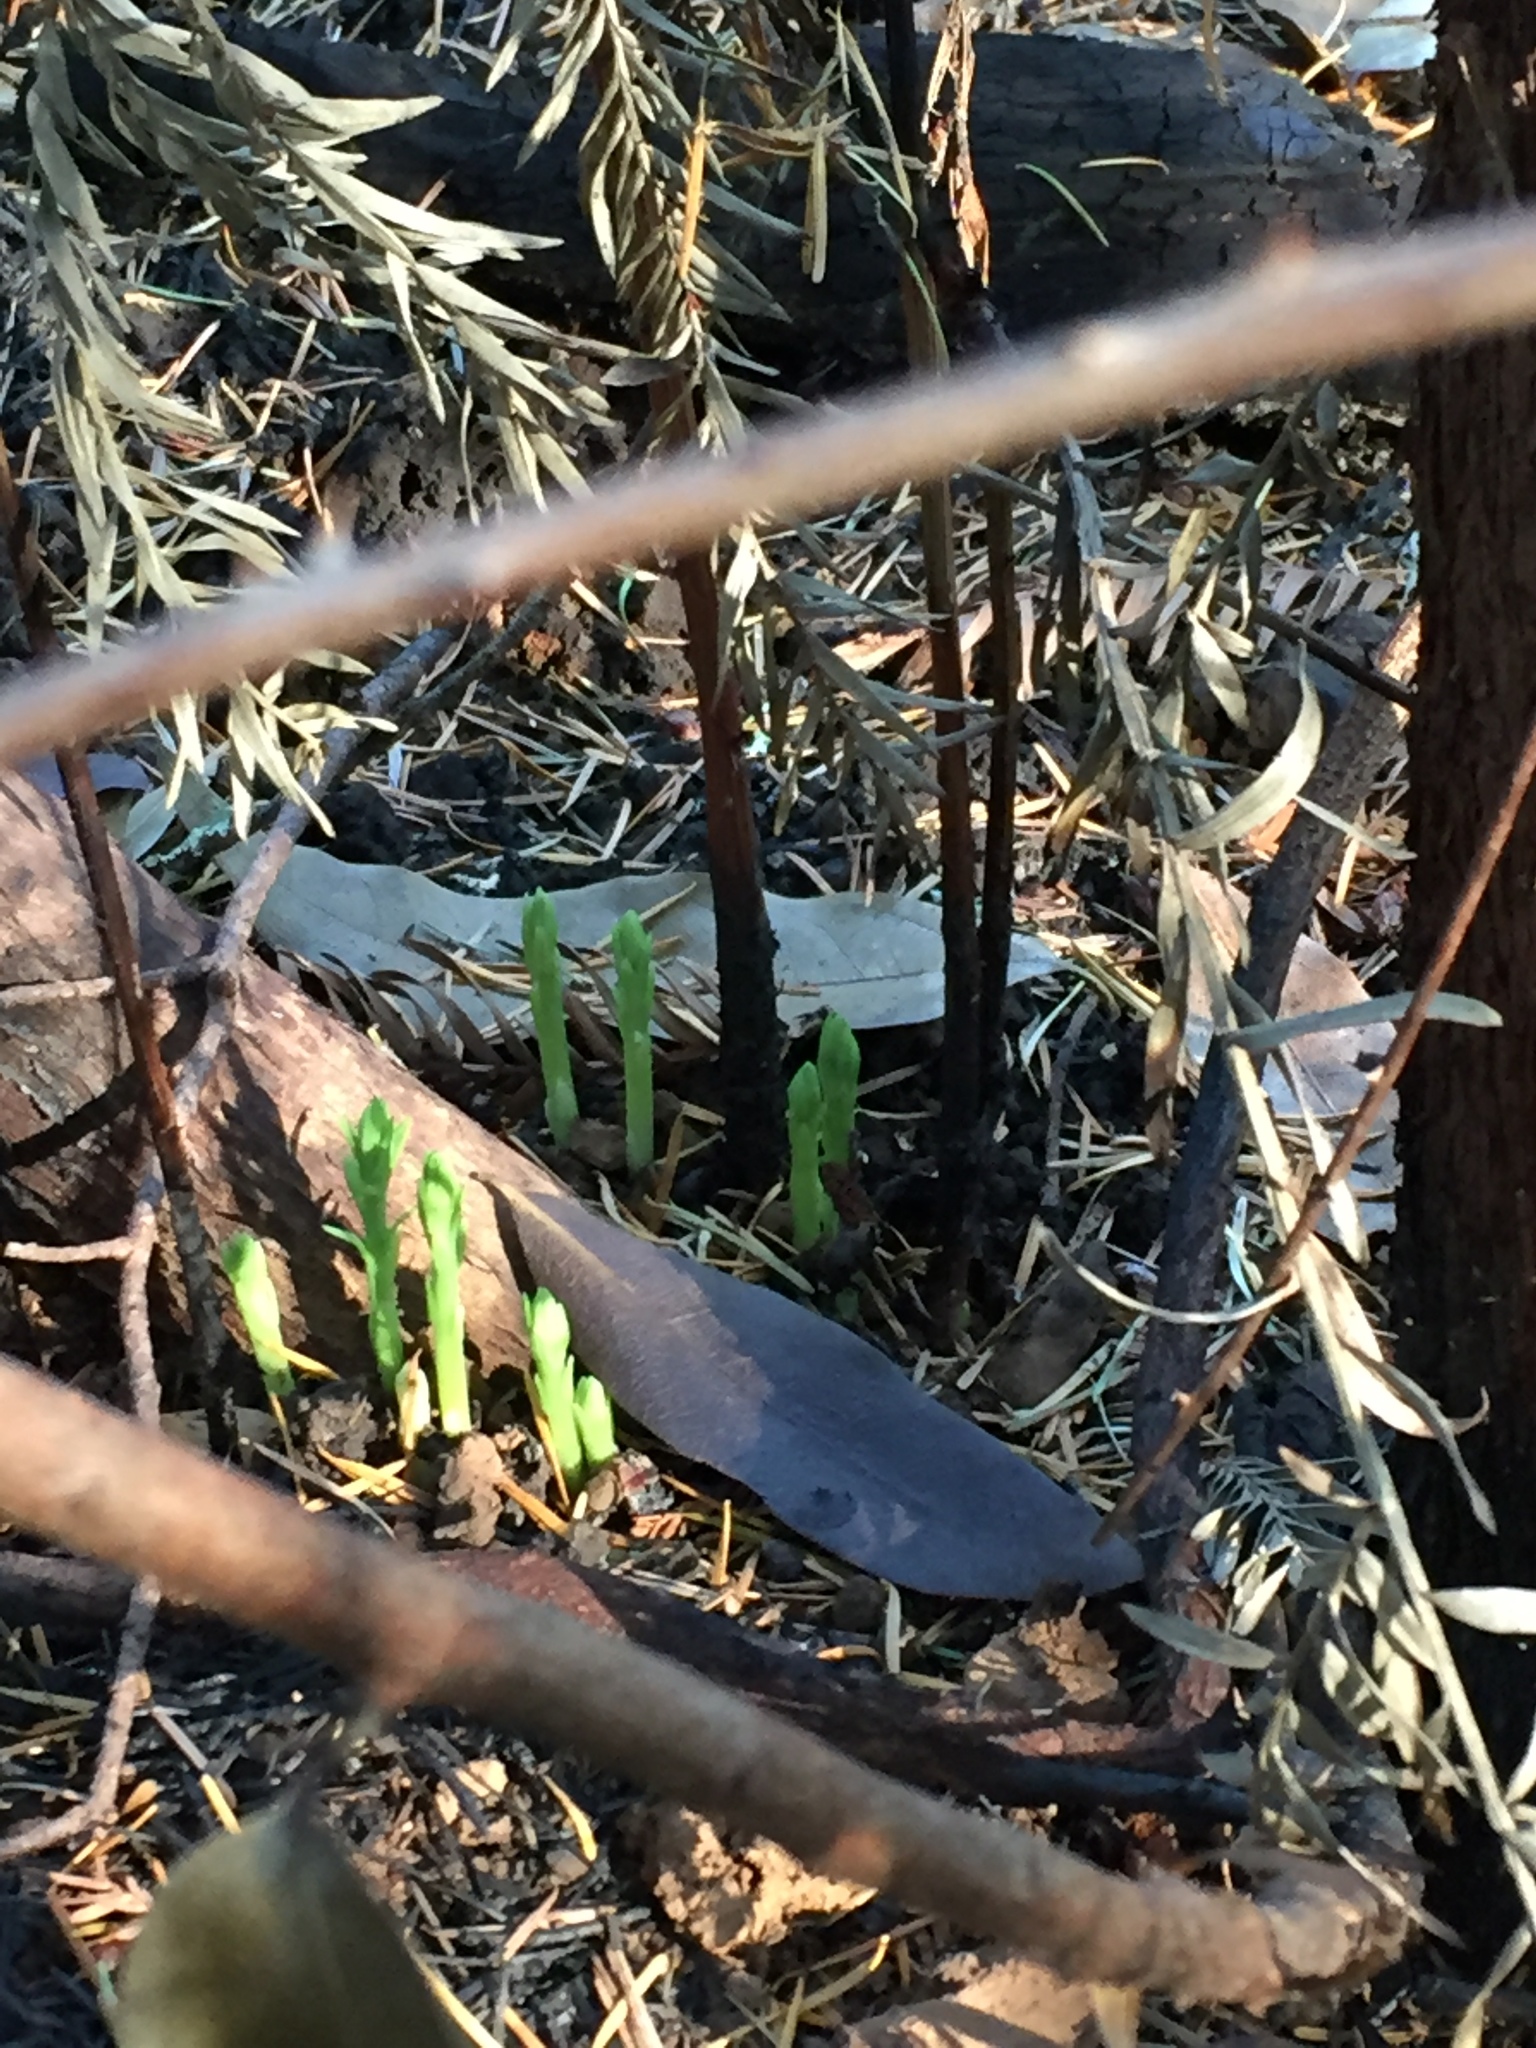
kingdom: Plantae
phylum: Tracheophyta
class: Pinopsida
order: Pinales
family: Cupressaceae
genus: Sequoia
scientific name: Sequoia sempervirens
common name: Coast redwood
